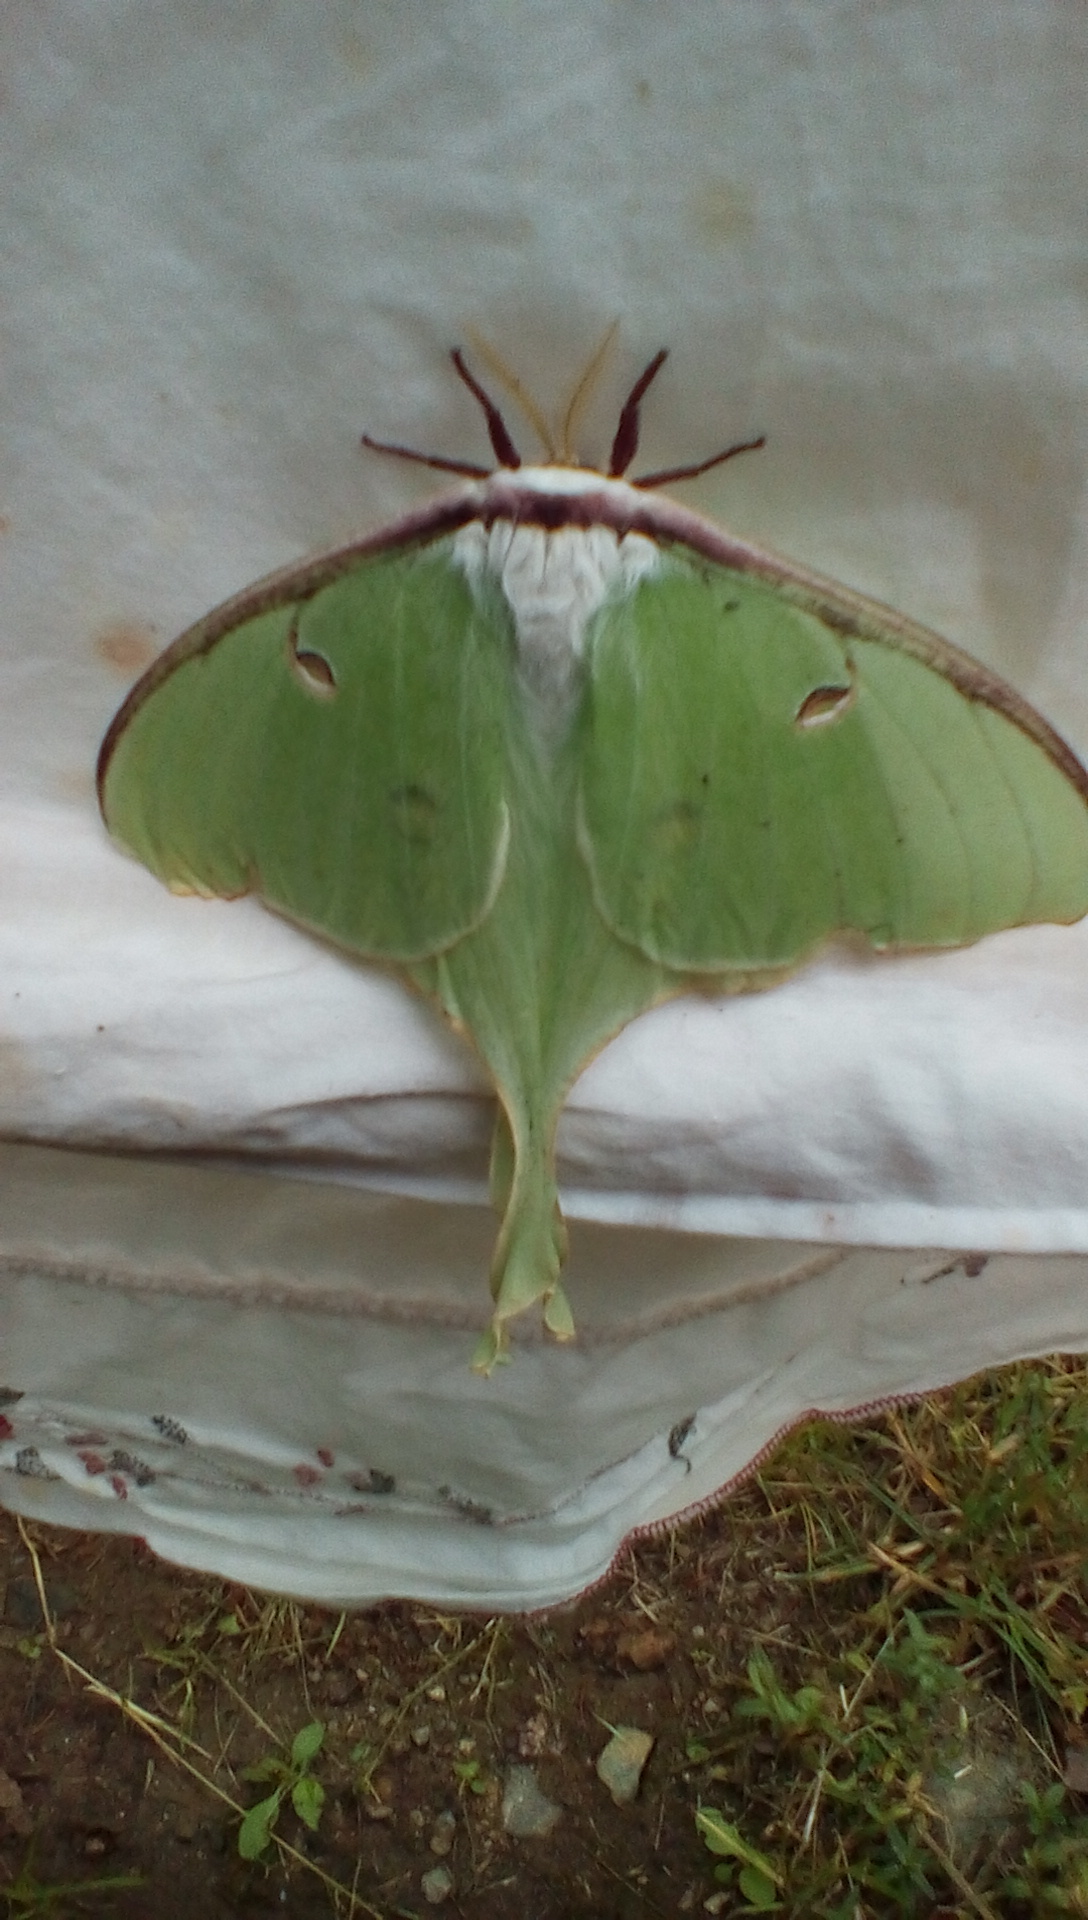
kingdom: Animalia
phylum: Arthropoda
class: Insecta
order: Lepidoptera
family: Saturniidae
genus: Actias
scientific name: Actias luna
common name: Luna moth
